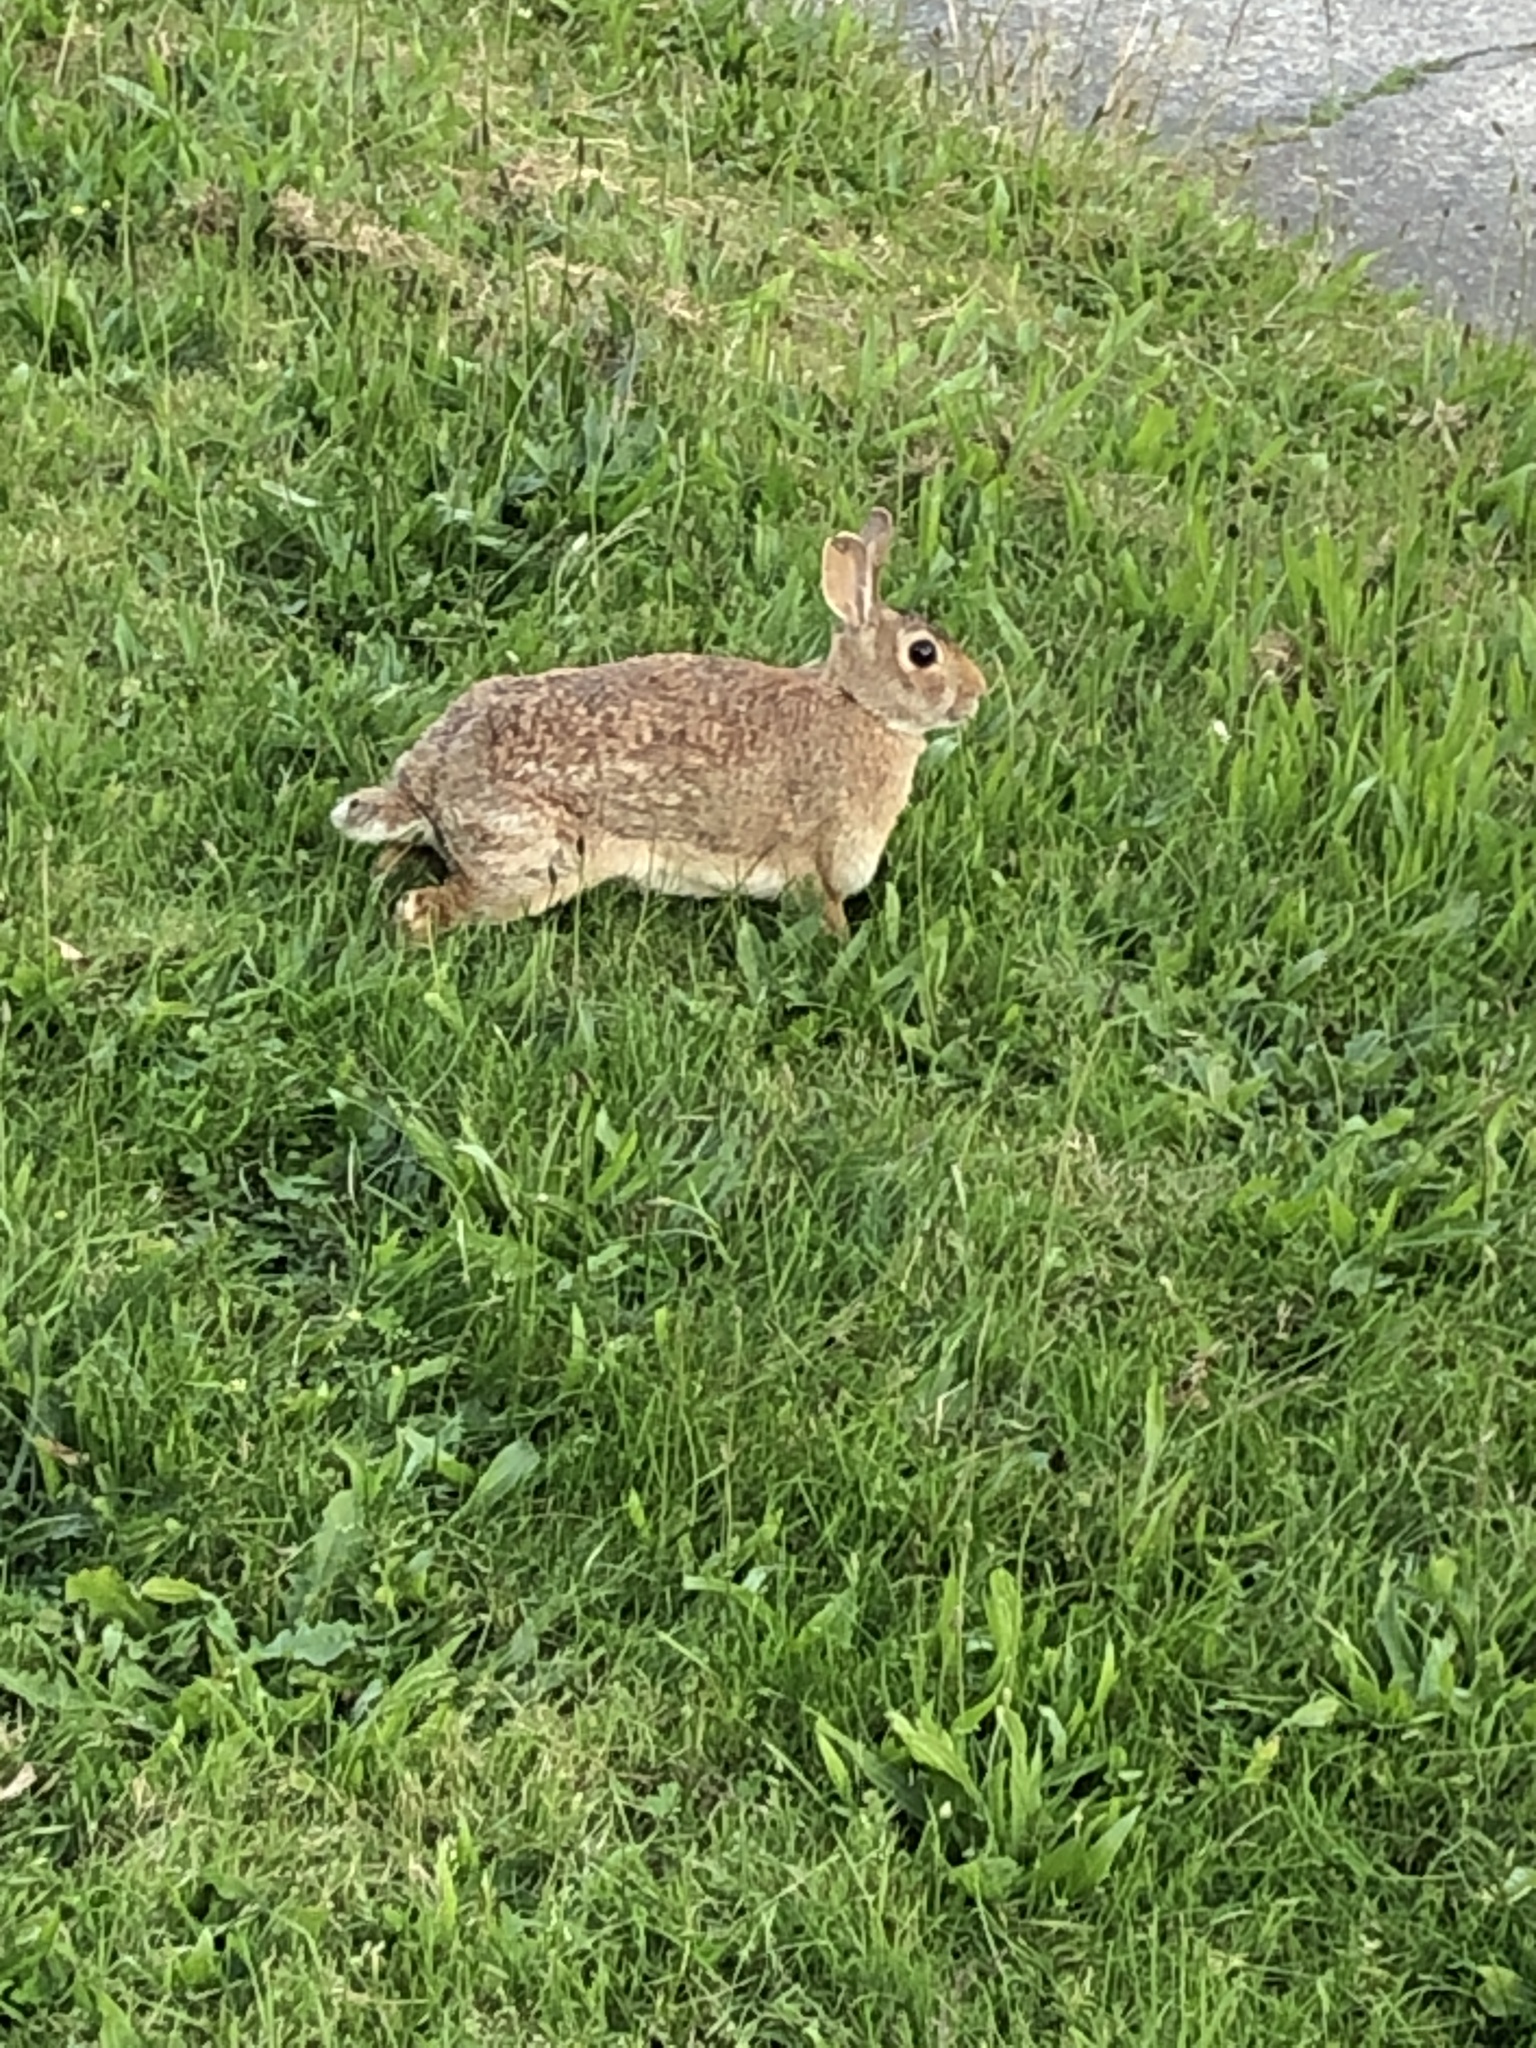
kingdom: Animalia
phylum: Chordata
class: Mammalia
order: Lagomorpha
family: Leporidae
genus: Sylvilagus
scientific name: Sylvilagus floridanus
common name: Eastern cottontail
